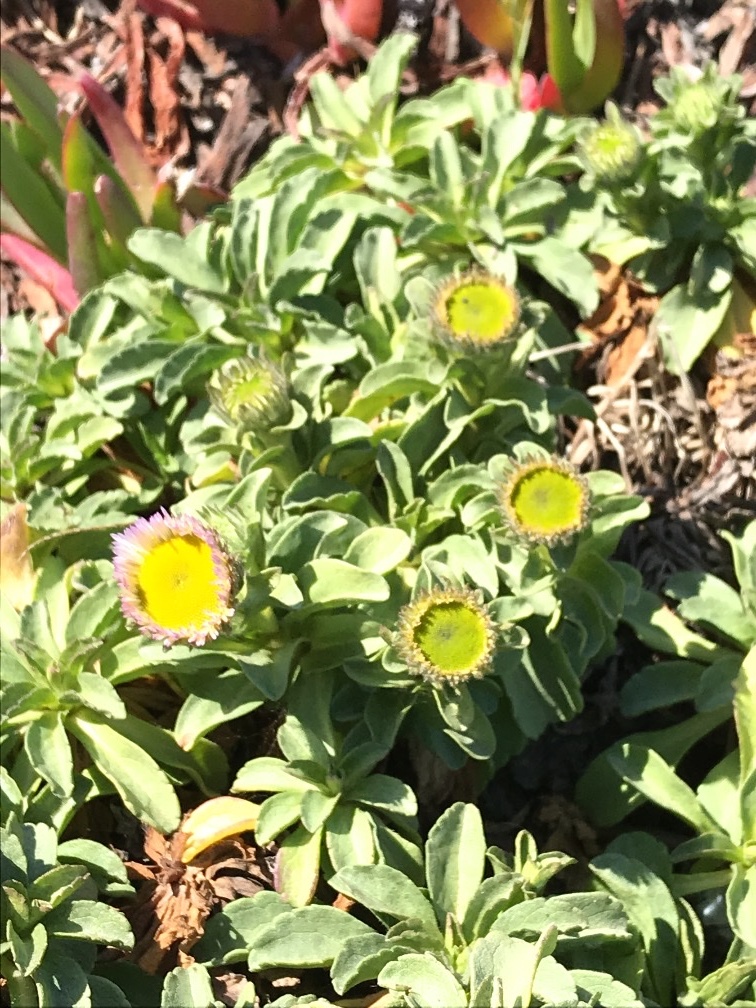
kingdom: Plantae
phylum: Tracheophyta
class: Magnoliopsida
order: Asterales
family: Asteraceae
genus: Erigeron
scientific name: Erigeron glaucus
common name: Seaside daisy
